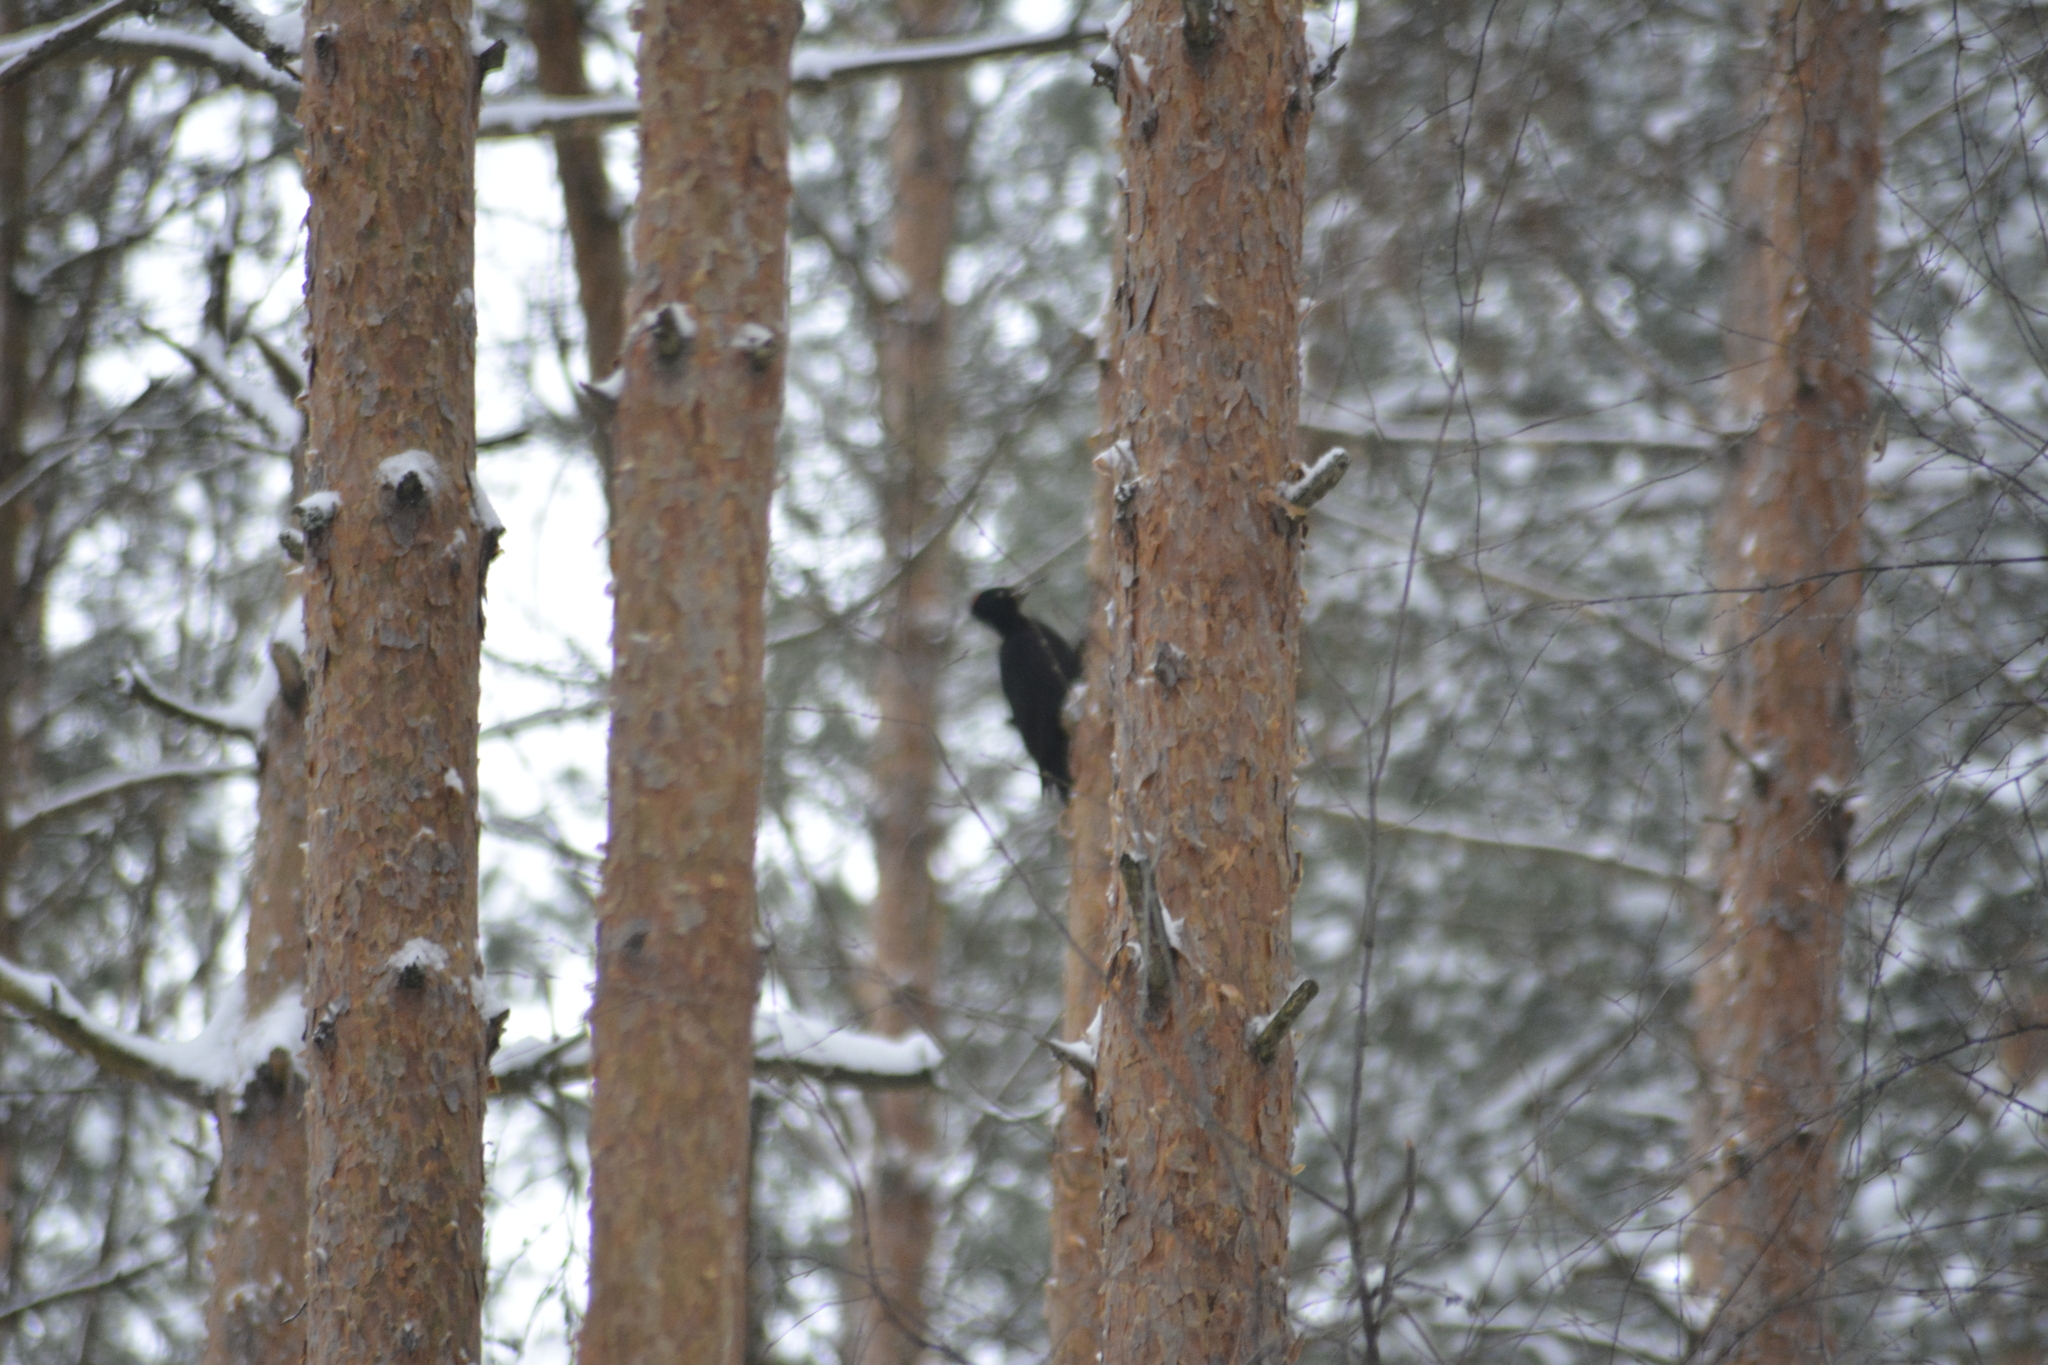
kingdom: Animalia
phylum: Chordata
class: Aves
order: Piciformes
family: Picidae
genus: Dryocopus
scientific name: Dryocopus martius
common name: Black woodpecker
